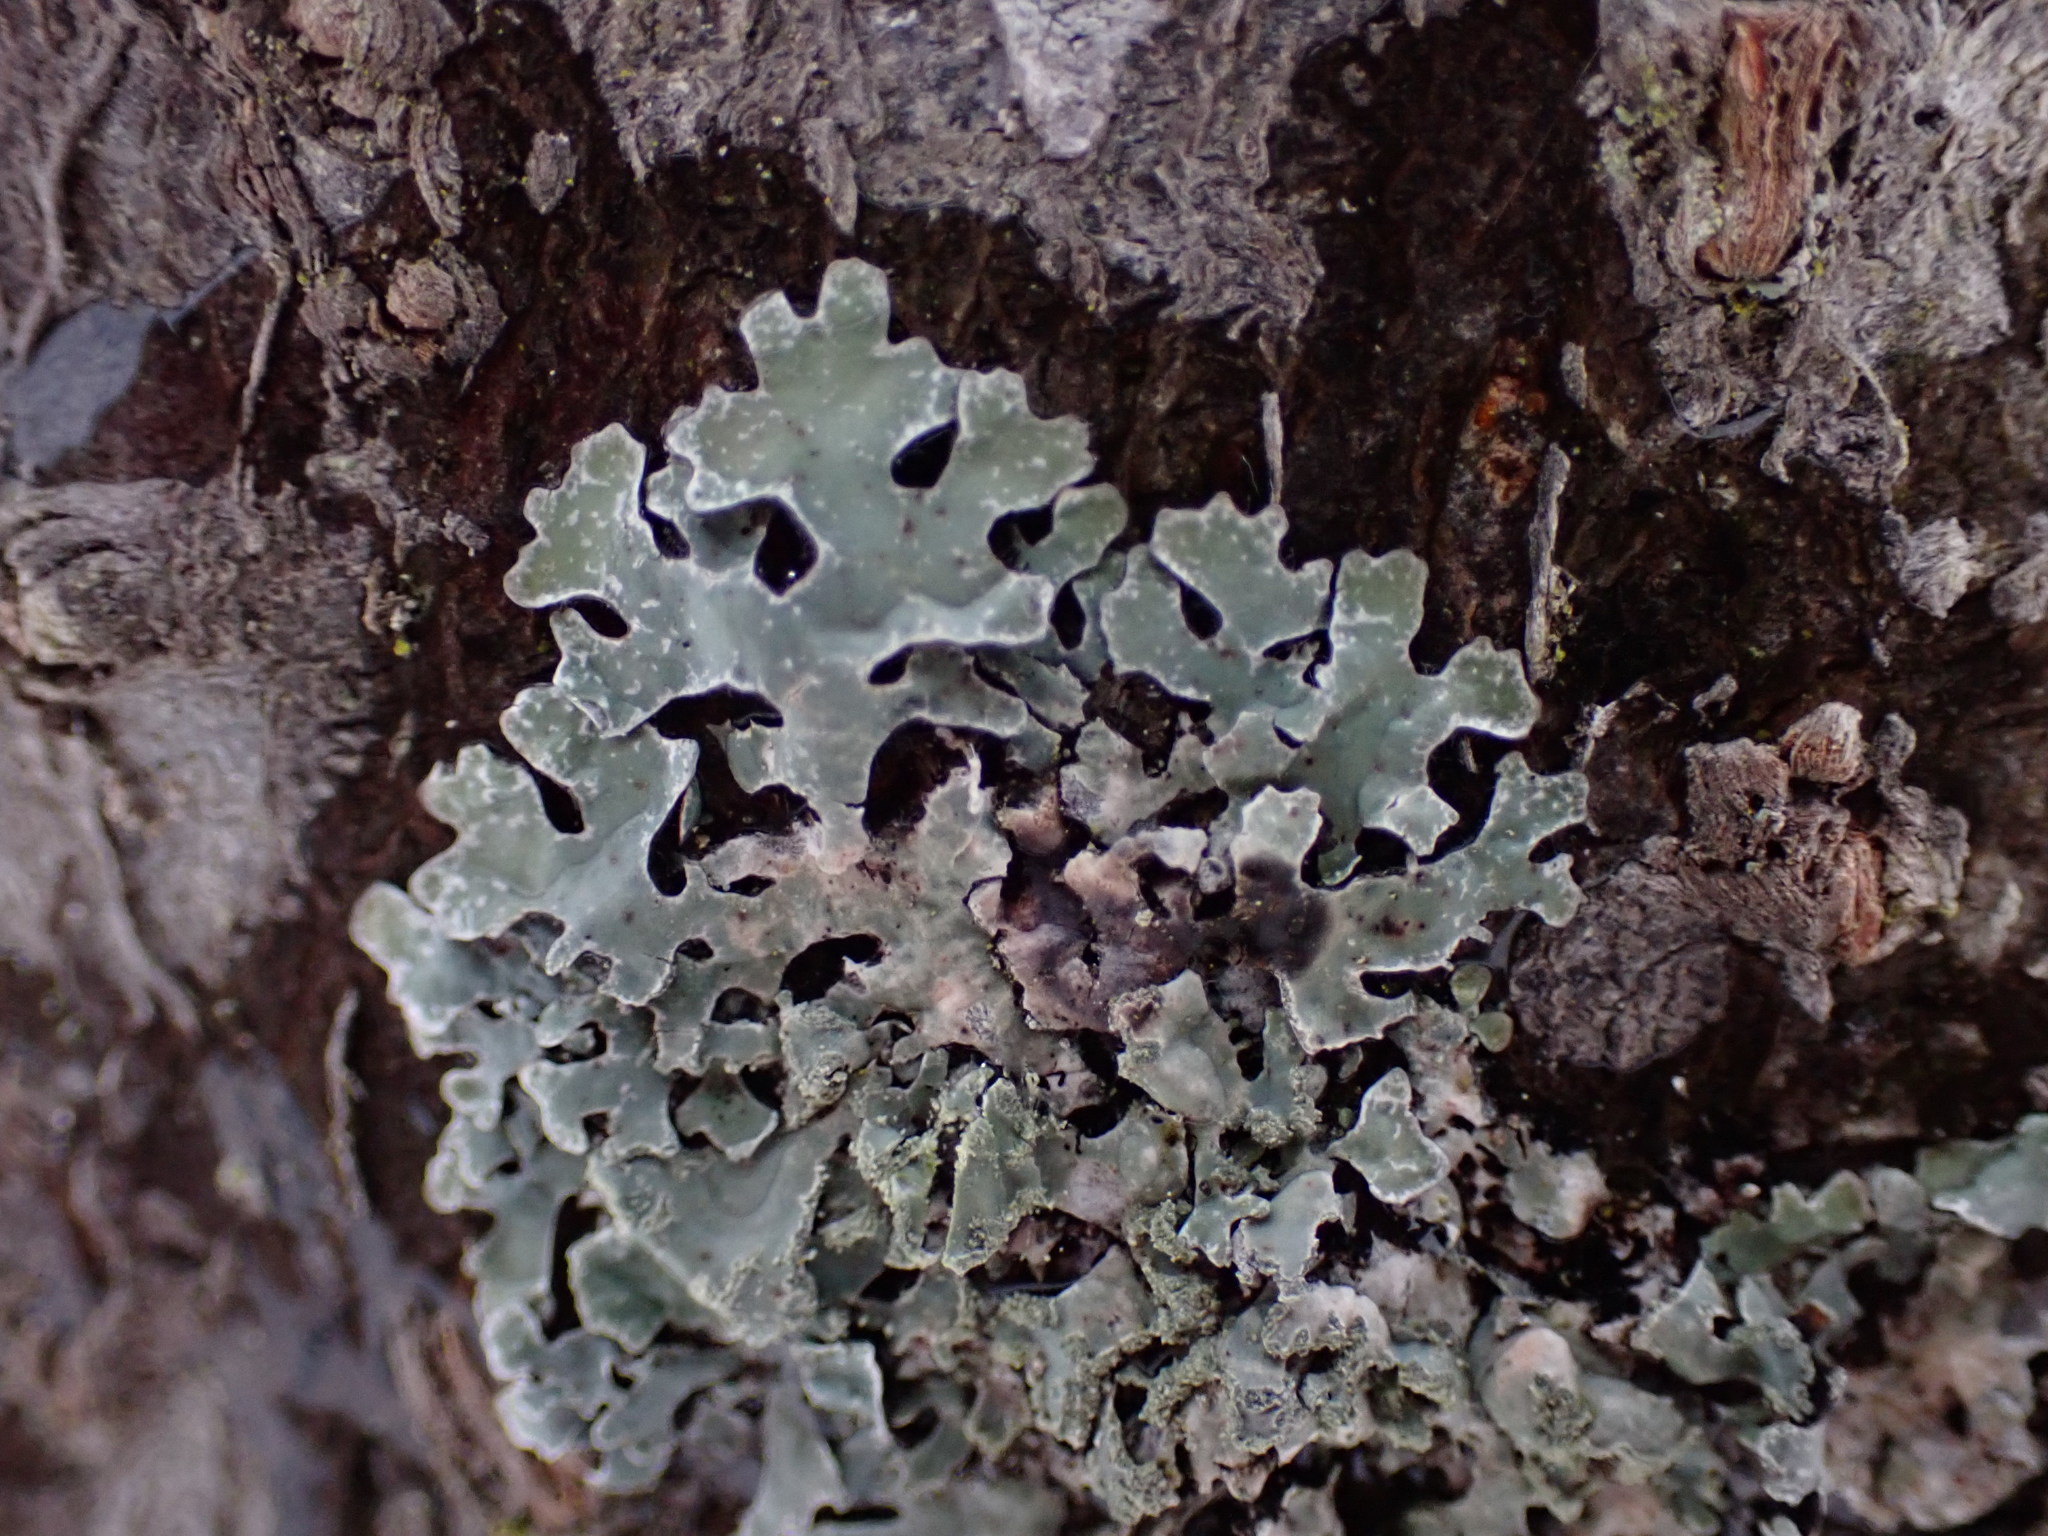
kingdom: Fungi
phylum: Ascomycota
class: Lecanoromycetes
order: Lecanorales
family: Parmeliaceae
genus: Parmelia
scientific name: Parmelia sulcata
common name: Netted shield lichen
